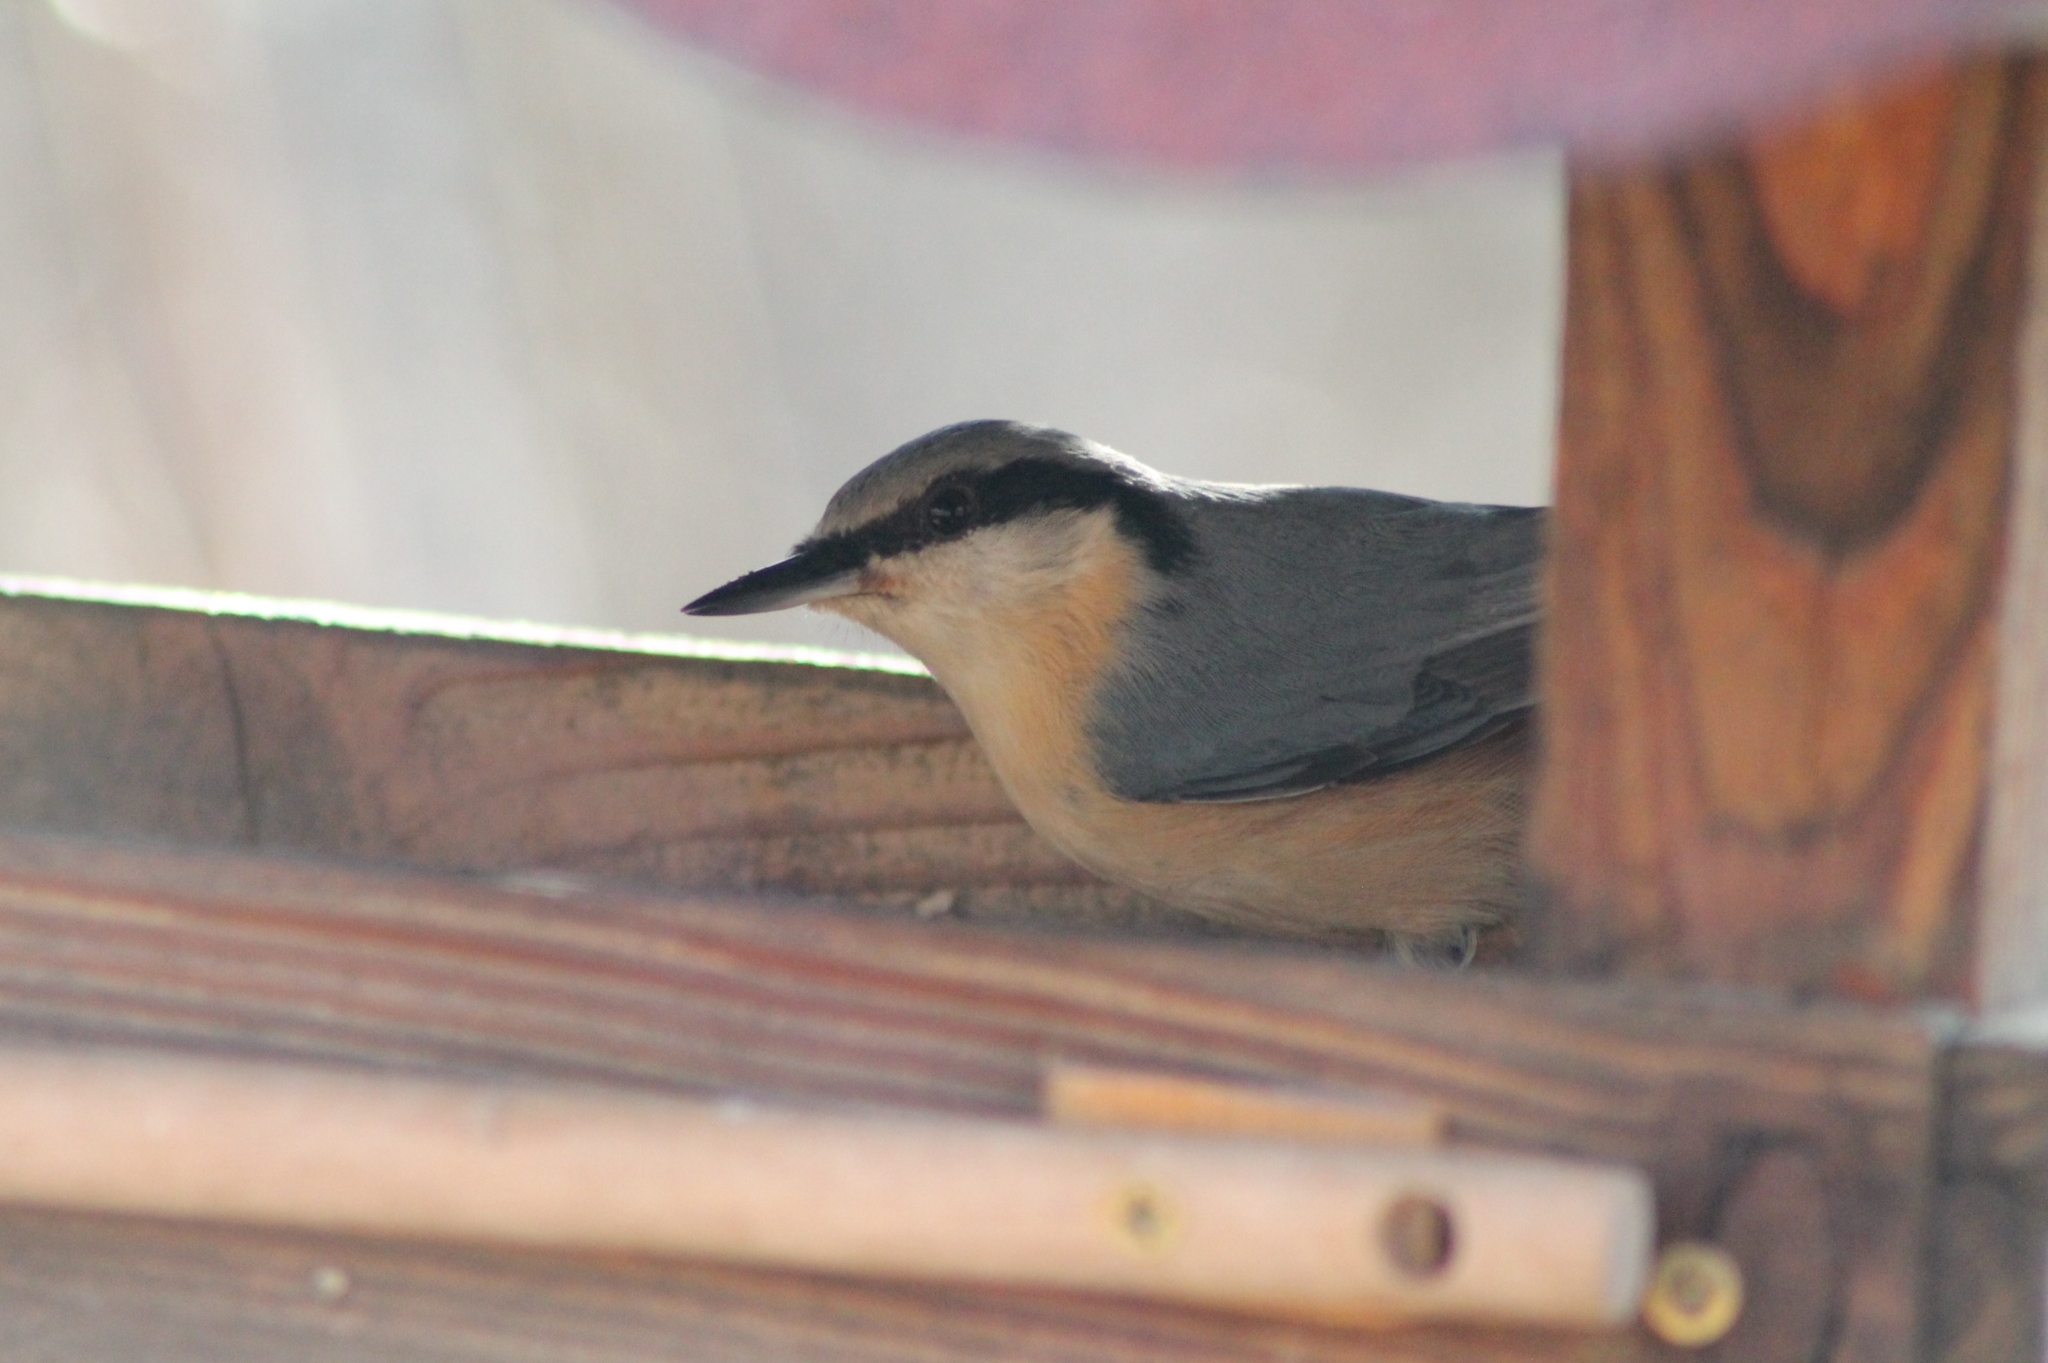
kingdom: Animalia
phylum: Chordata
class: Aves
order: Passeriformes
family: Sittidae
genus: Sitta
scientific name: Sitta europaea
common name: Eurasian nuthatch
